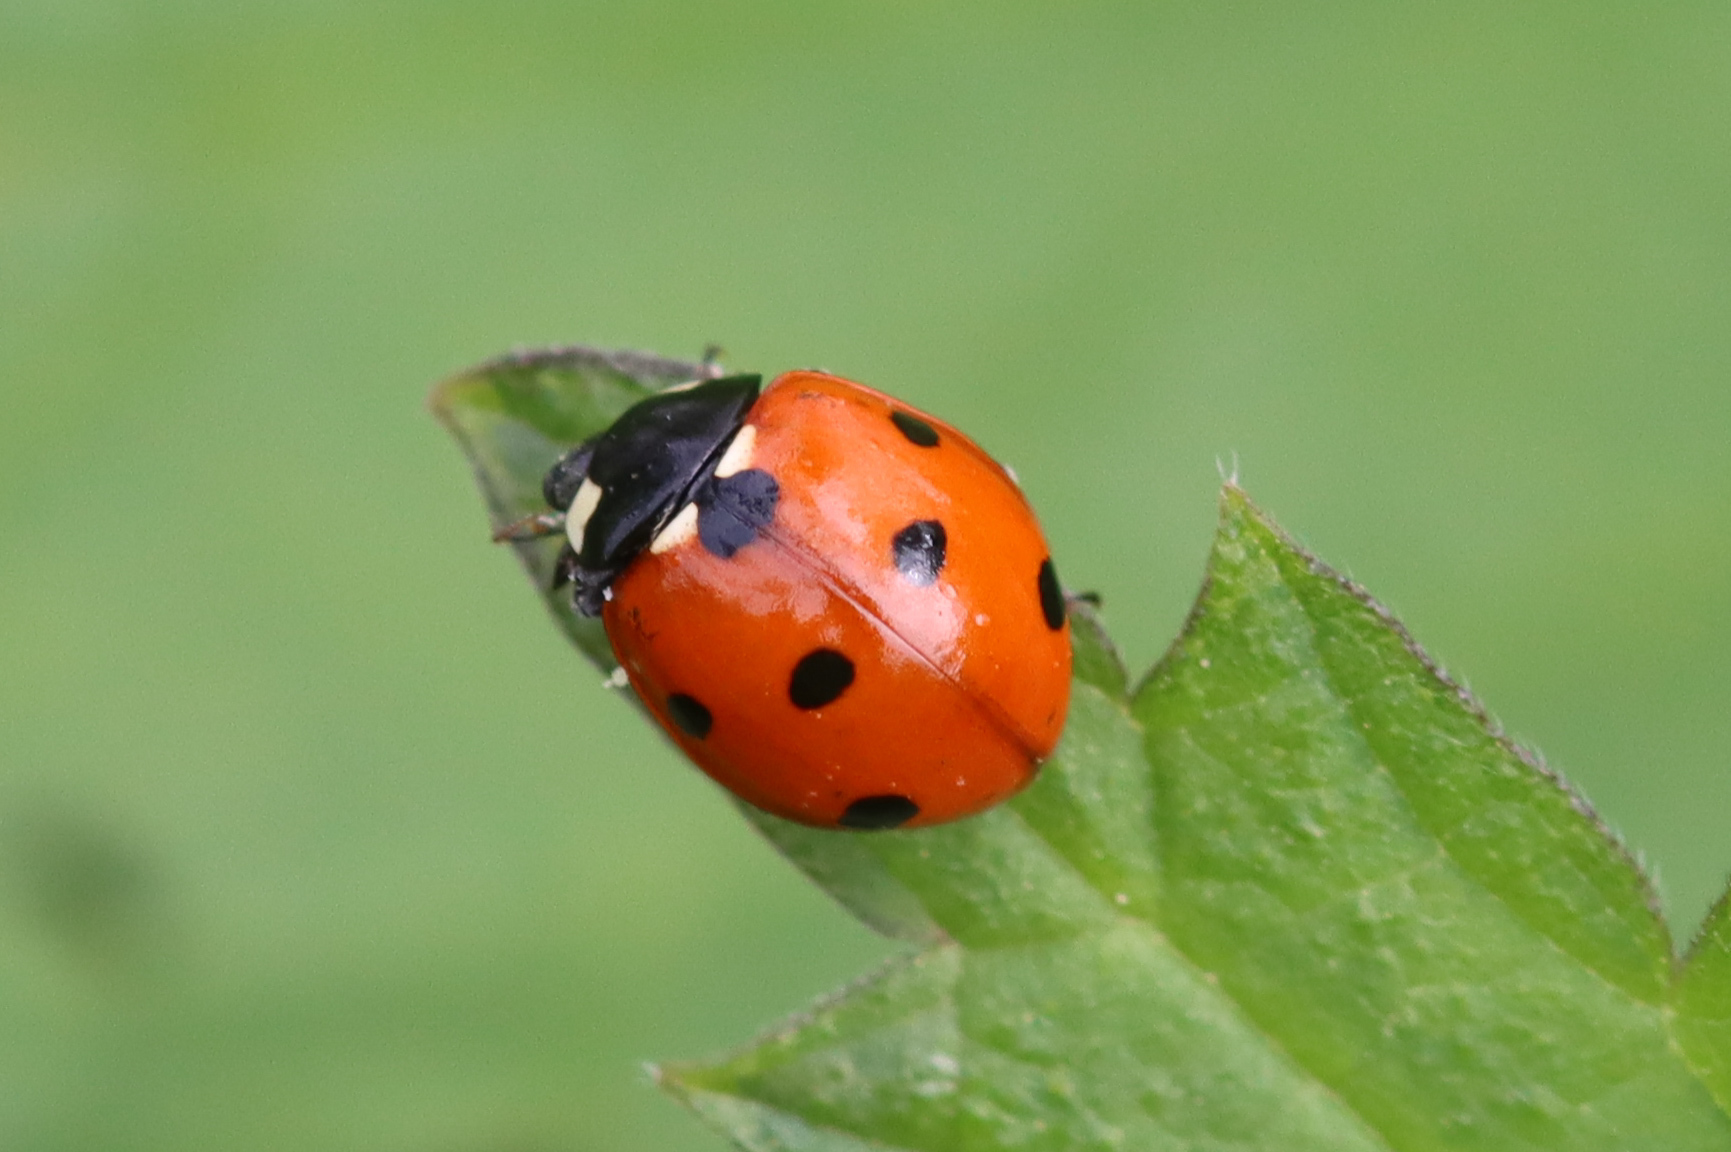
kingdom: Animalia
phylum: Arthropoda
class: Insecta
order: Coleoptera
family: Coccinellidae
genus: Coccinella
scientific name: Coccinella septempunctata
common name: Sevenspotted lady beetle
